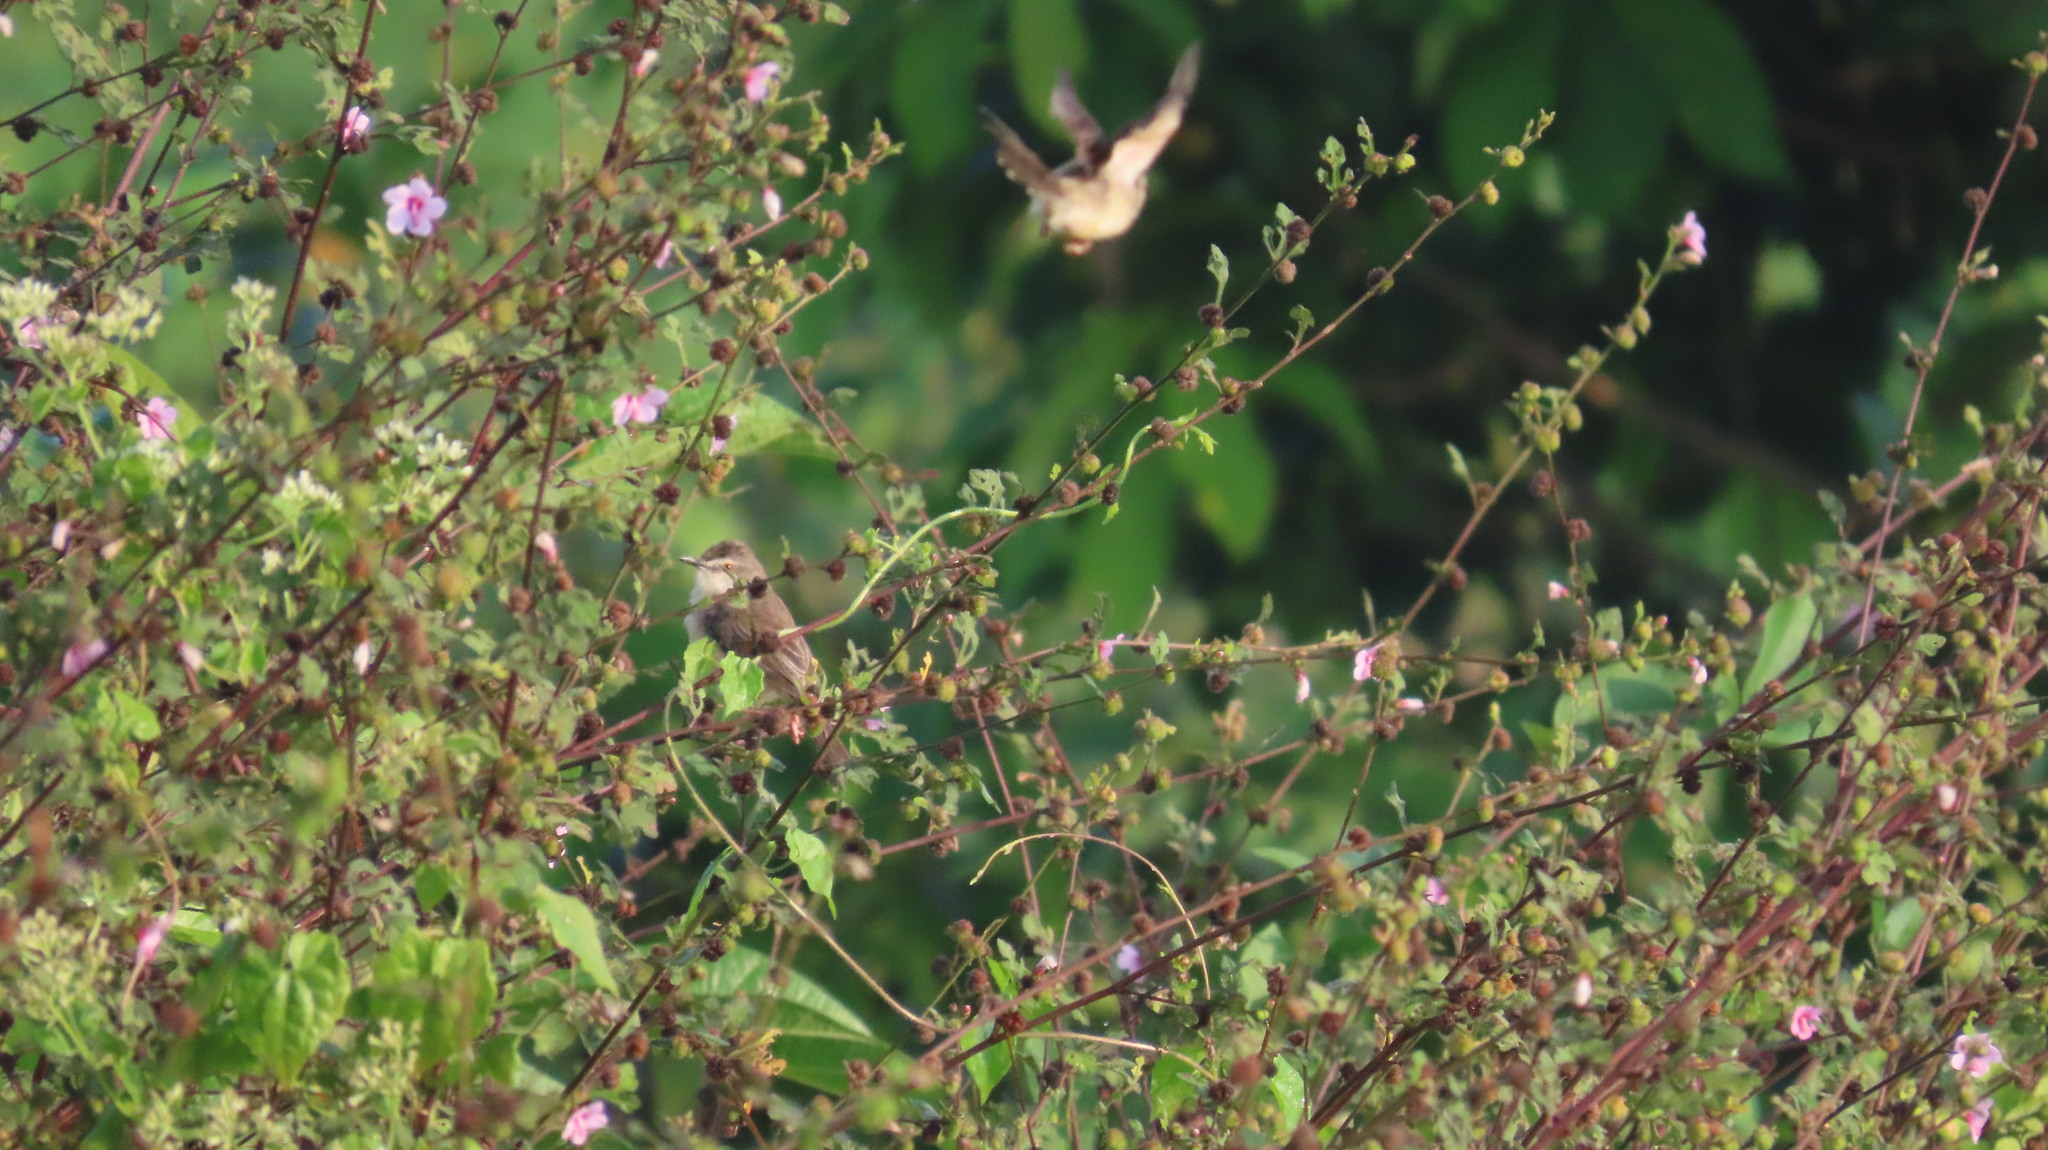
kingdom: Animalia
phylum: Chordata
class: Aves
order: Passeriformes
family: Cisticolidae
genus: Prinia
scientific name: Prinia inornata
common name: Plain prinia
